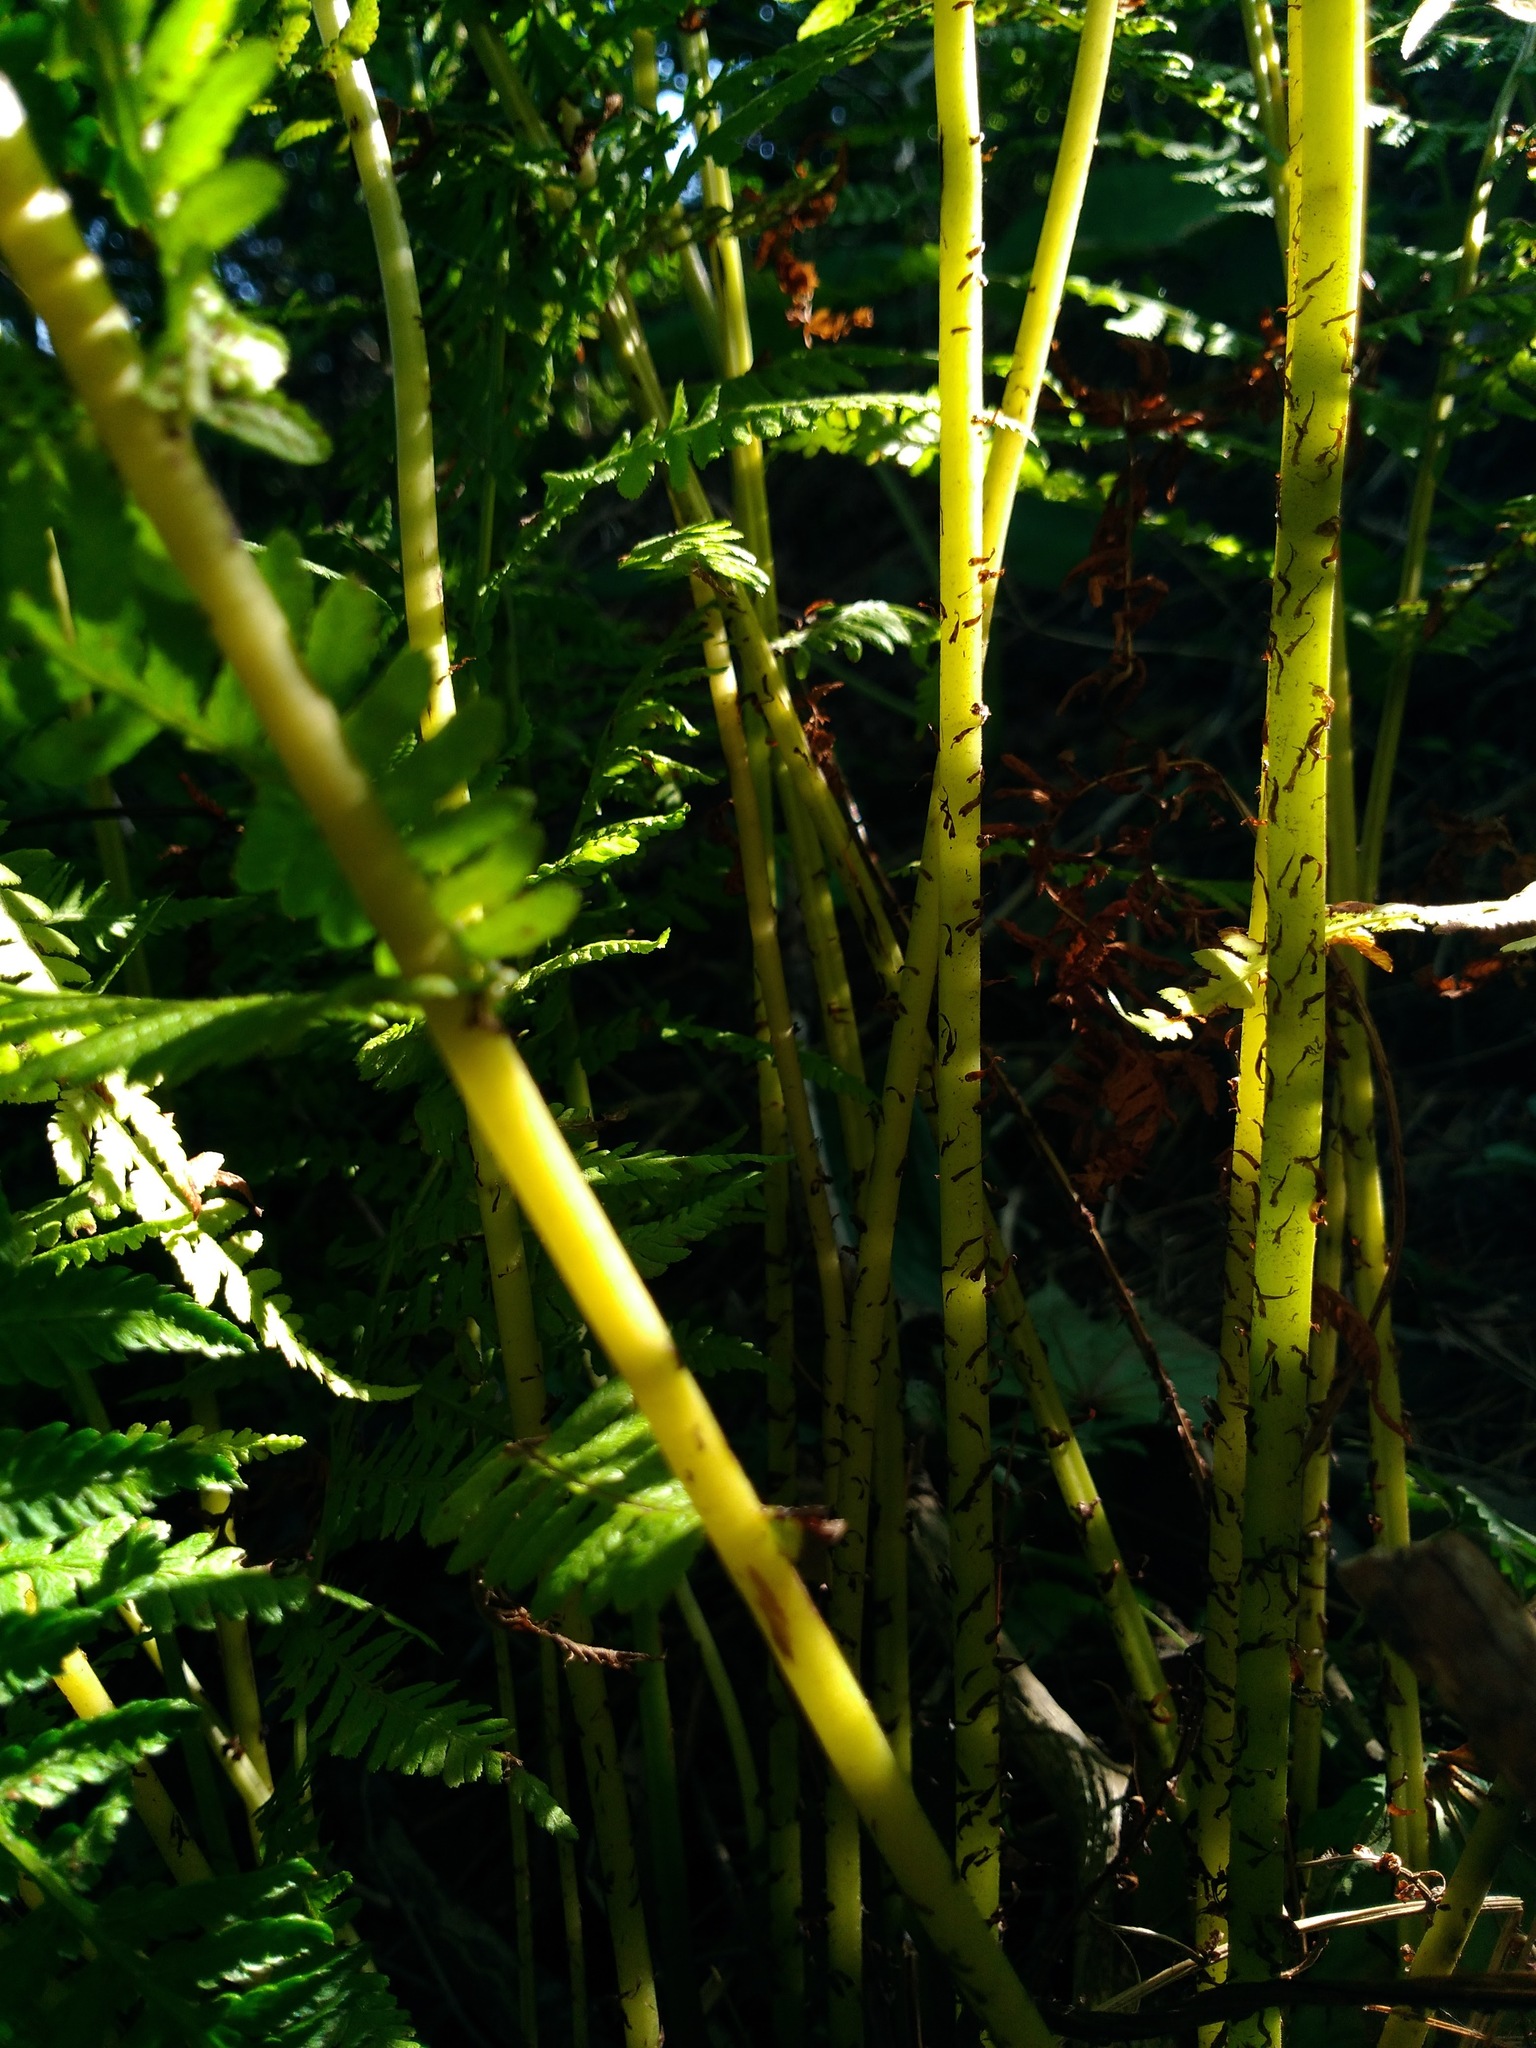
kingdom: Plantae
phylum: Tracheophyta
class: Polypodiopsida
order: Polypodiales
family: Athyriaceae
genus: Athyrium
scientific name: Athyrium angustum
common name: Northern lady fern
